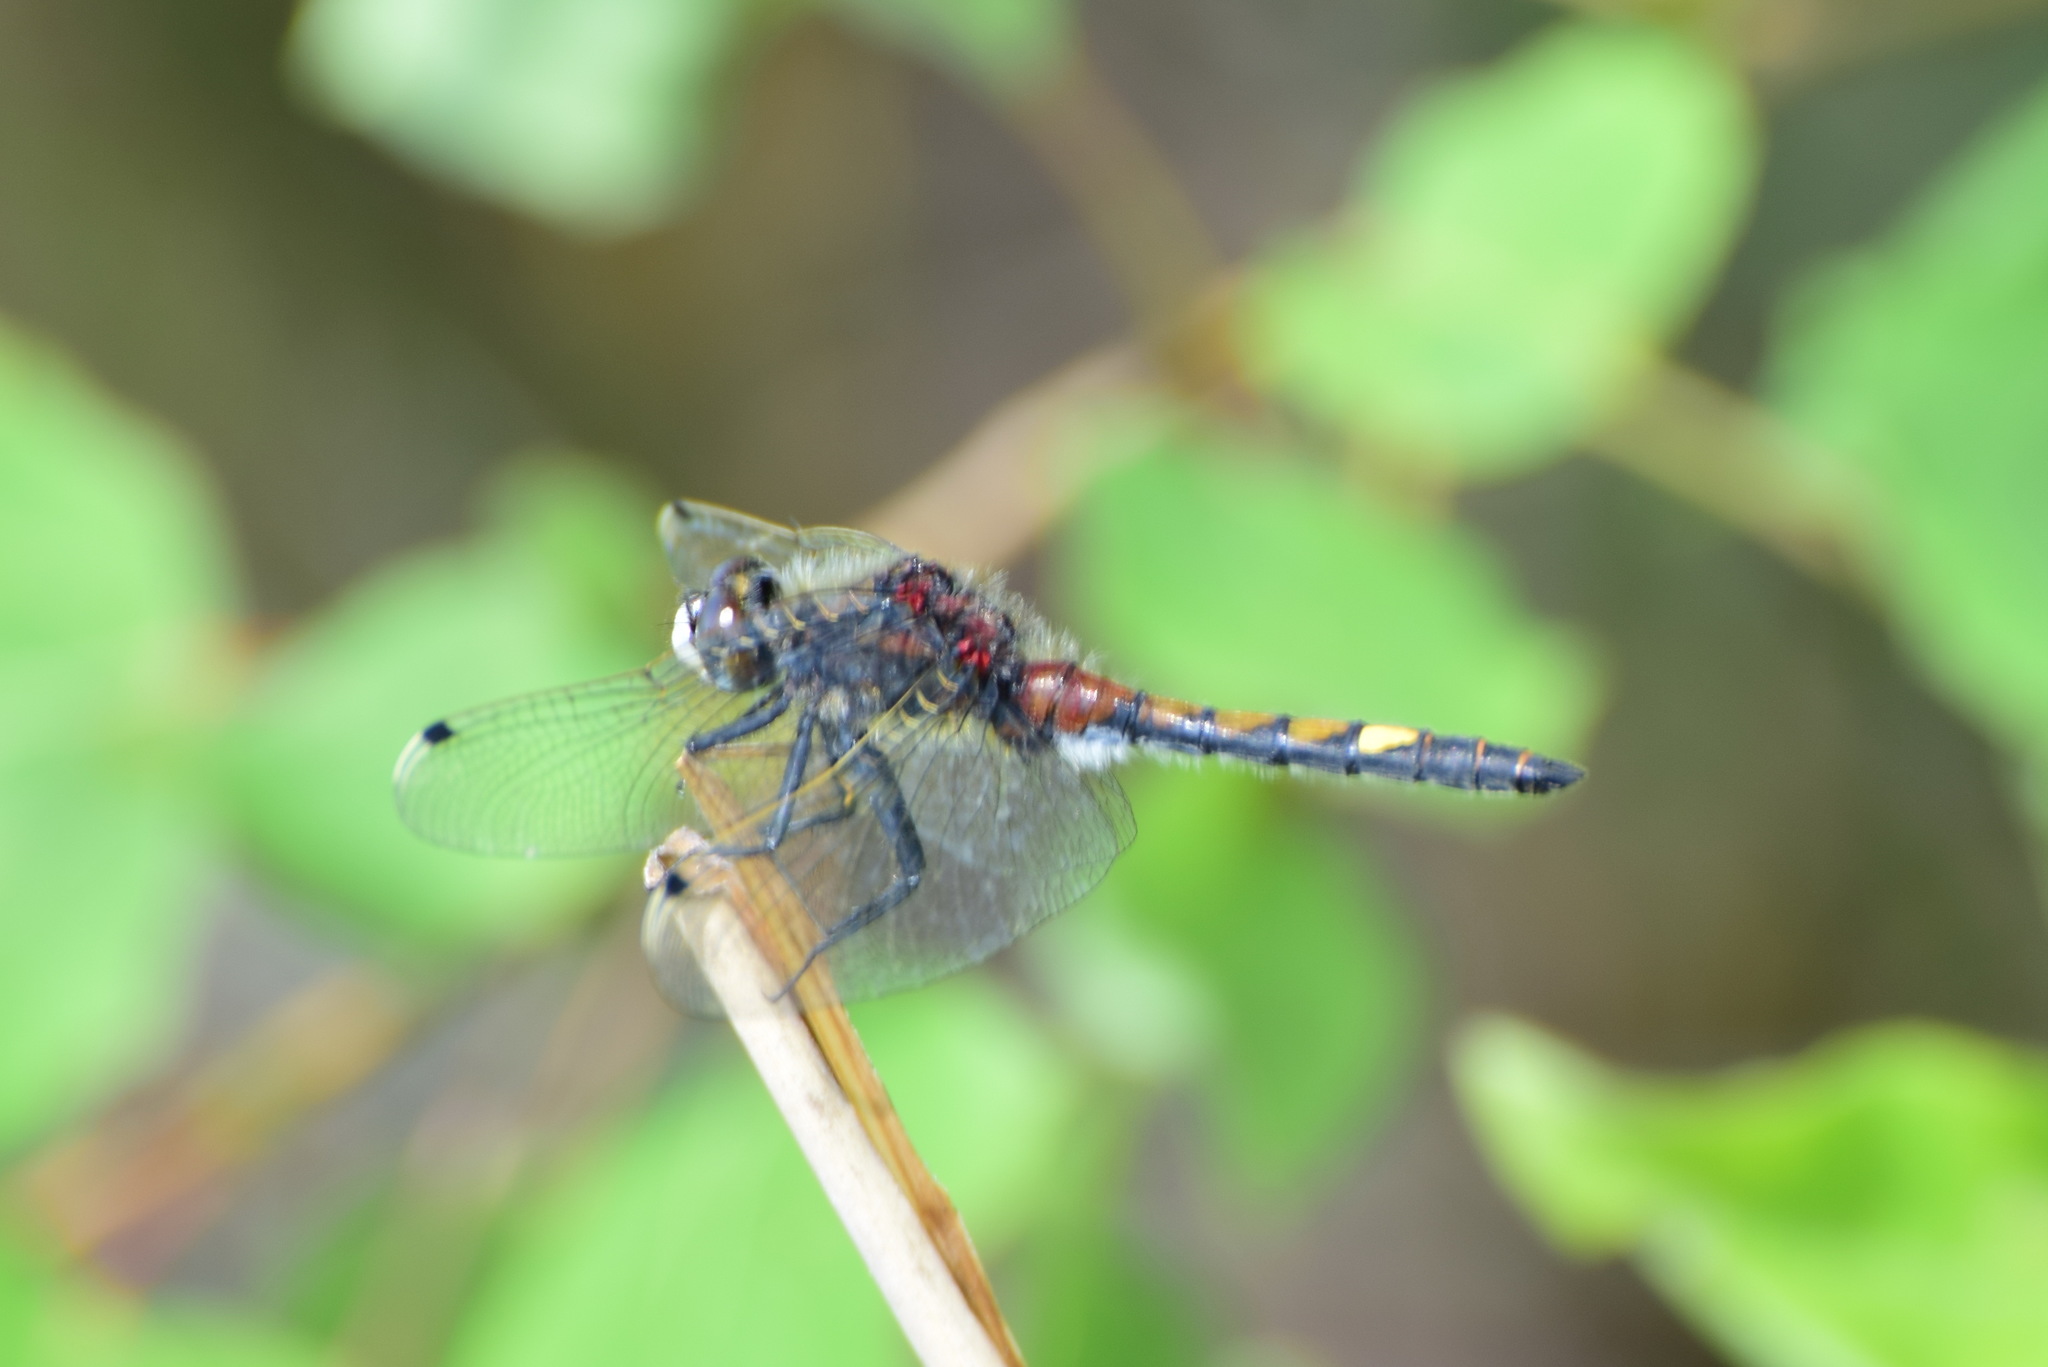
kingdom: Animalia
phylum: Arthropoda
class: Insecta
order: Odonata
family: Libellulidae
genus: Leucorrhinia
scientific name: Leucorrhinia pectoralis
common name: Yellow-spotted whiteface
